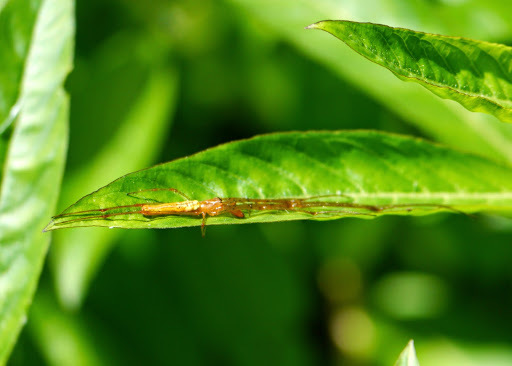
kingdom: Animalia
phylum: Arthropoda
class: Arachnida
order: Araneae
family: Tetragnathidae
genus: Tetragnatha
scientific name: Tetragnatha
